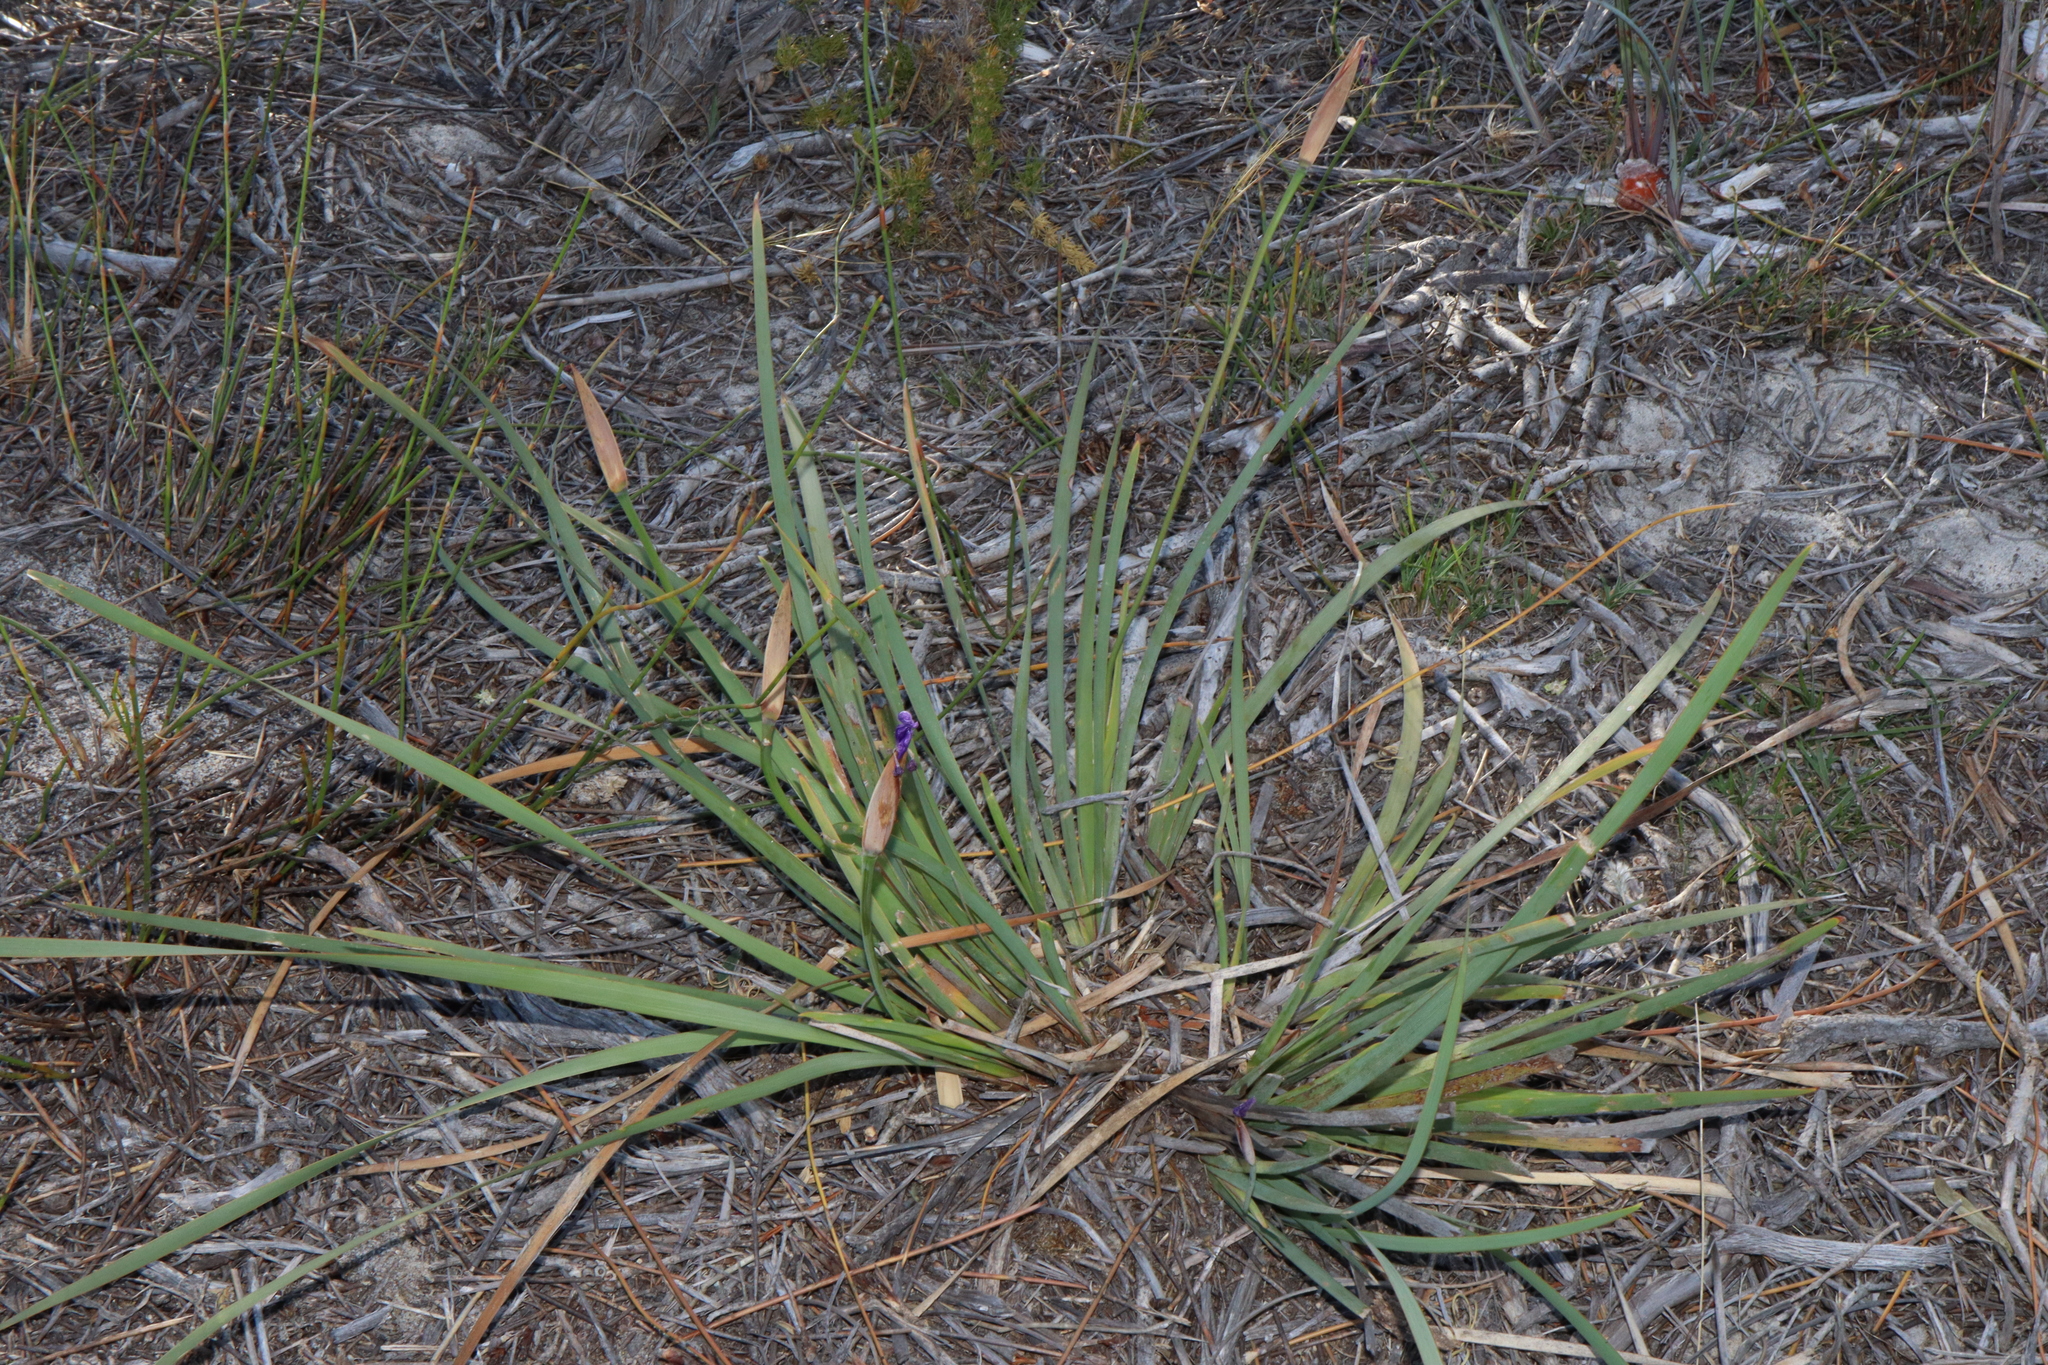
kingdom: Plantae
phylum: Tracheophyta
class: Liliopsida
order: Asparagales
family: Iridaceae
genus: Patersonia
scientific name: Patersonia occidentalis
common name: Long purple-flag
